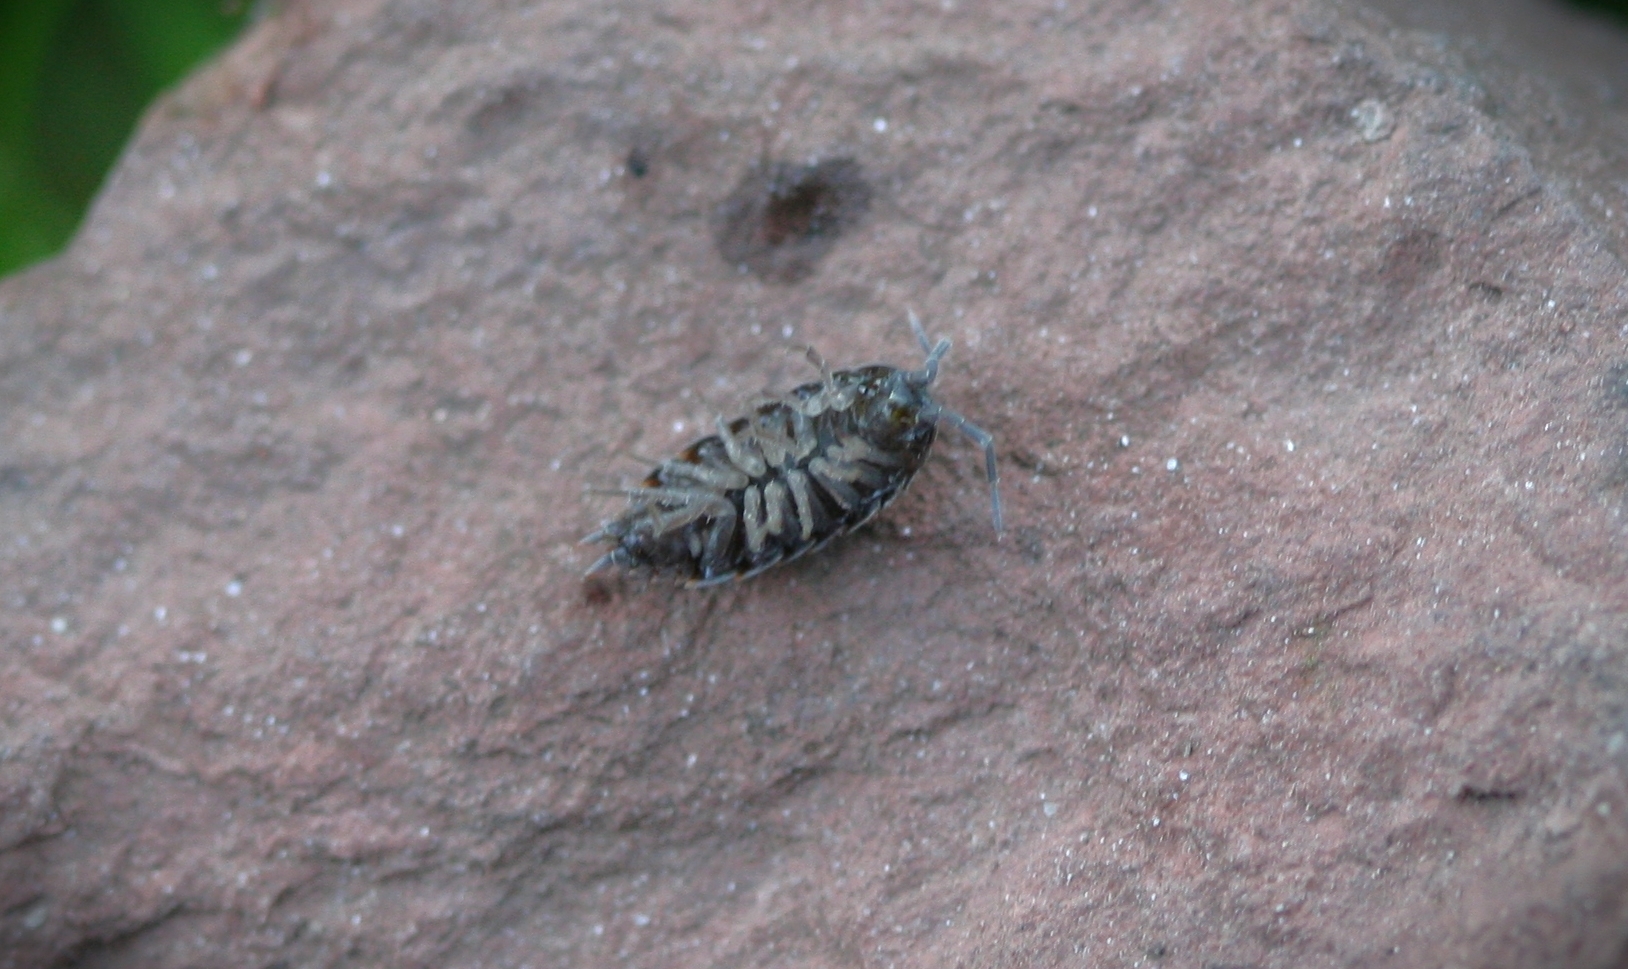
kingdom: Animalia
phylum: Arthropoda
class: Malacostraca
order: Isopoda
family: Porcellionidae
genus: Porcellionides
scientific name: Porcellionides
